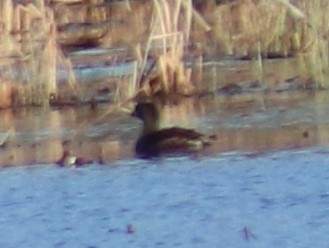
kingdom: Animalia
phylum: Chordata
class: Aves
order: Podicipediformes
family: Podicipedidae
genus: Podilymbus
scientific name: Podilymbus podiceps
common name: Pied-billed grebe
